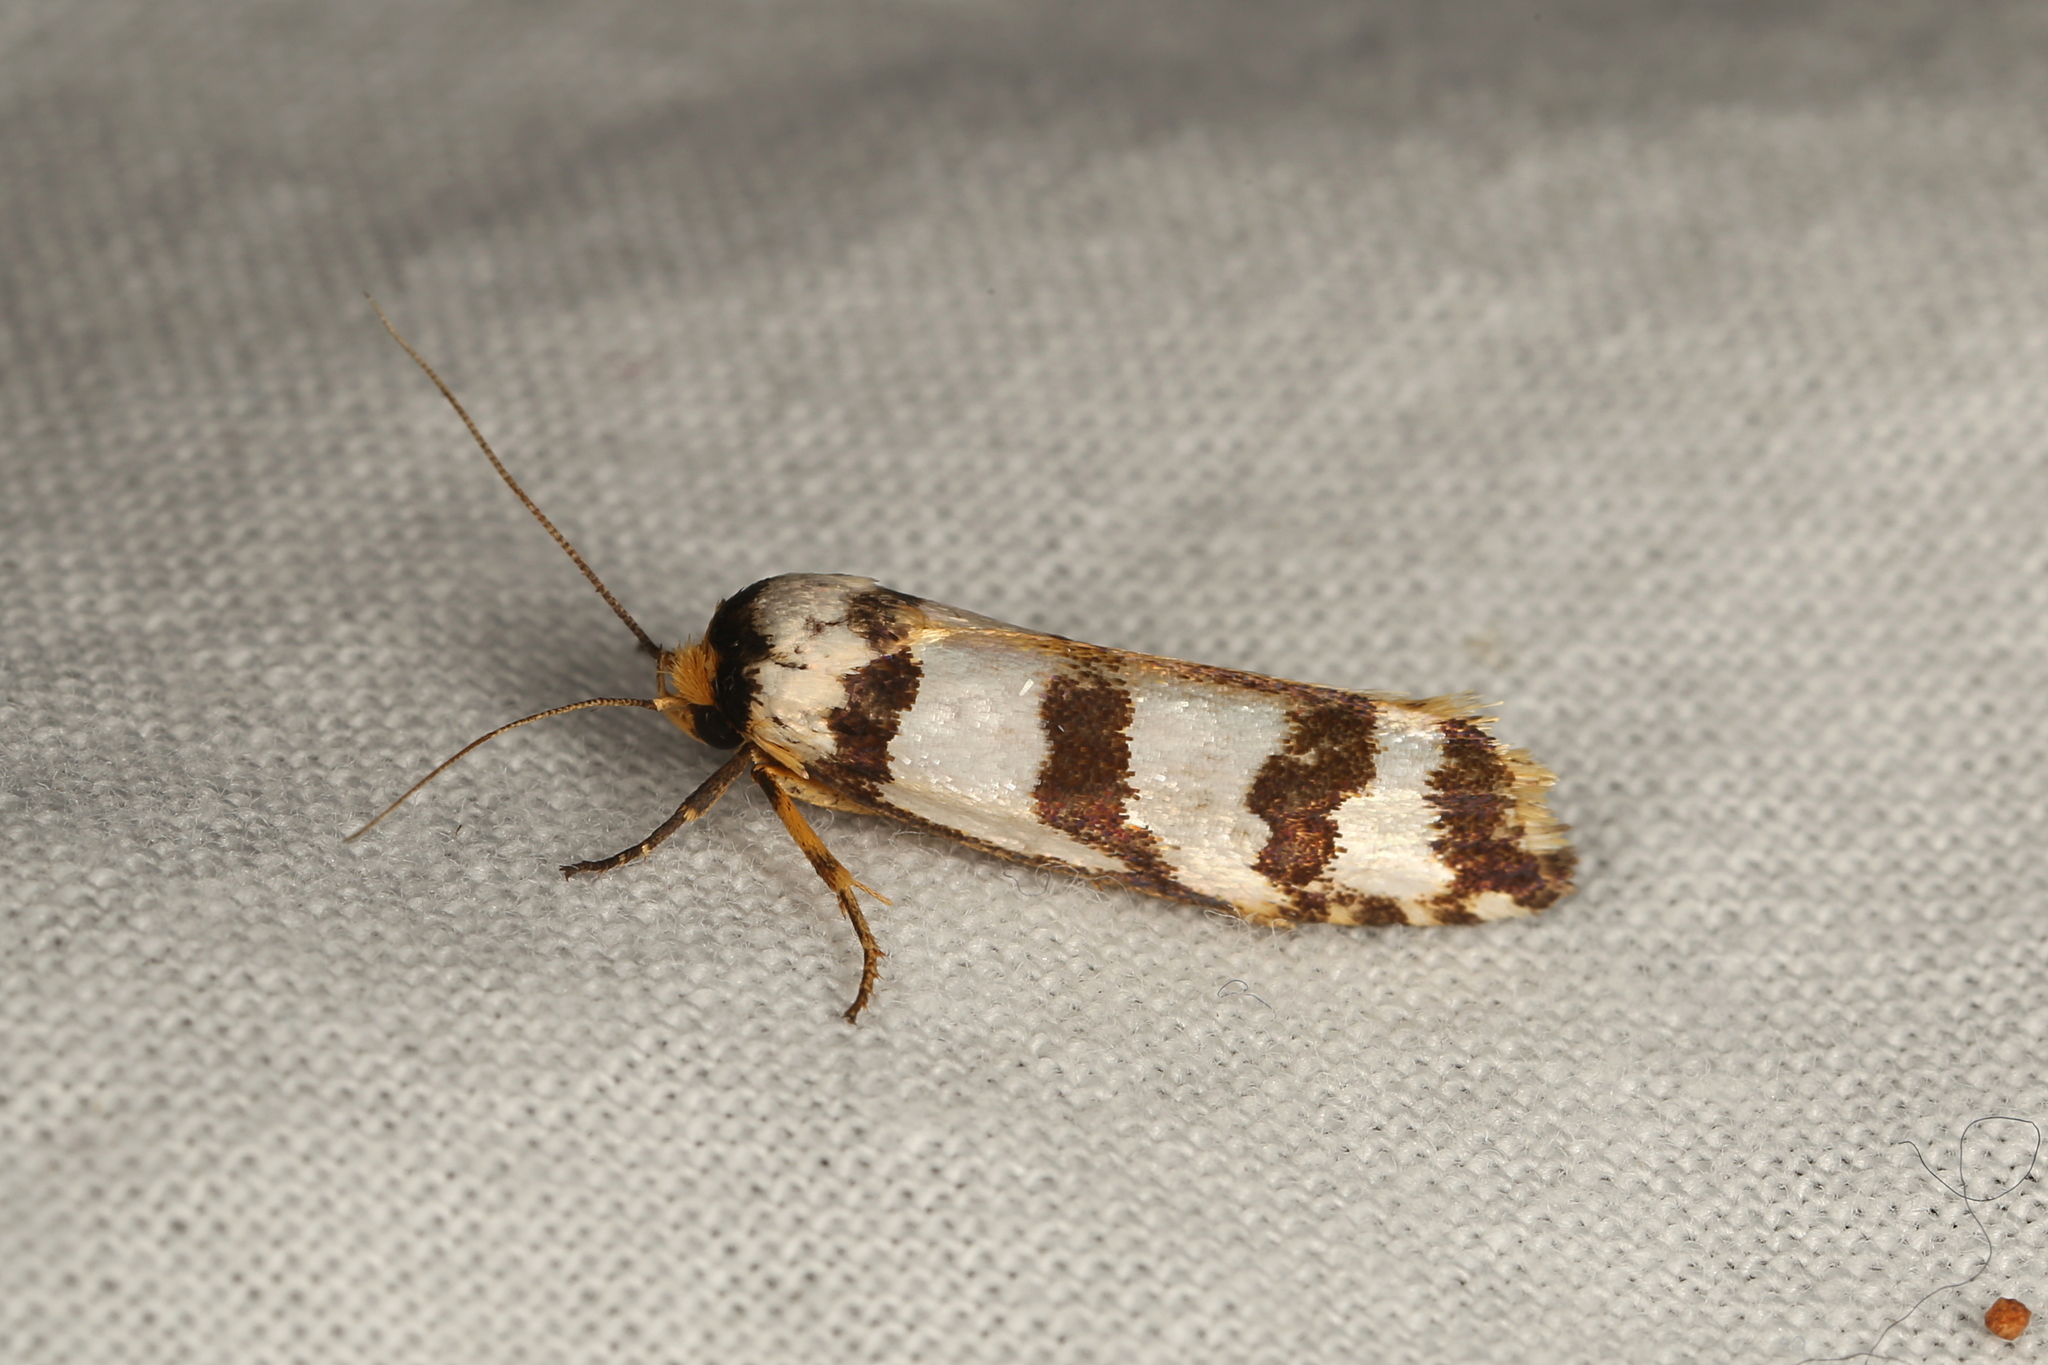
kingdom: Animalia
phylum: Arthropoda
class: Insecta
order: Lepidoptera
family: Xyloryctidae
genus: Cryptophasa
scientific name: Cryptophasa insana
